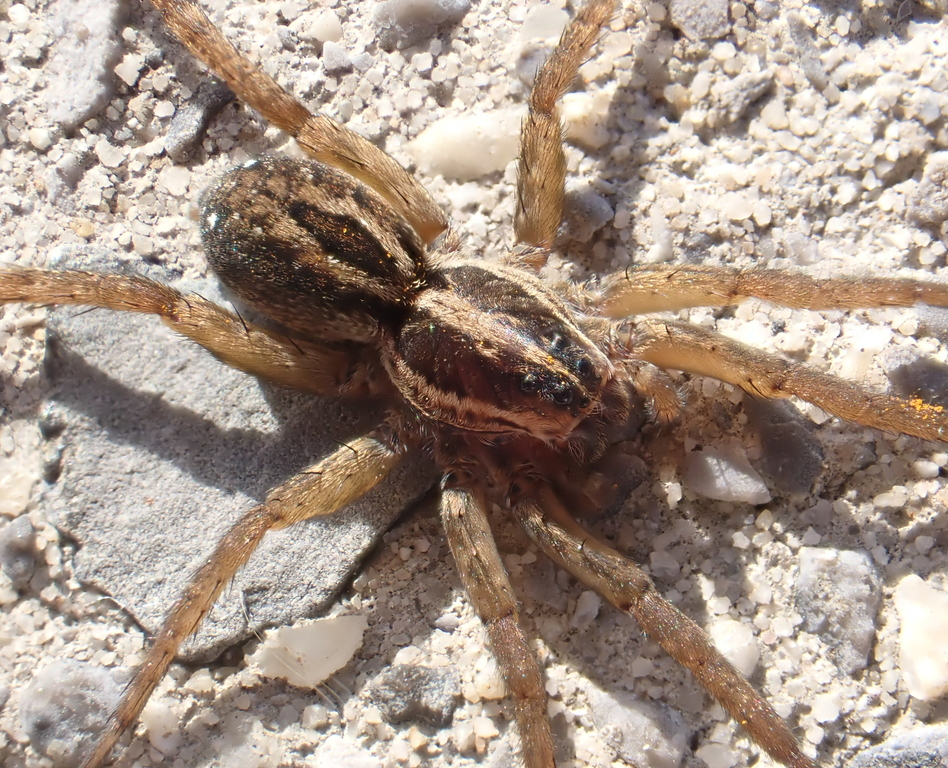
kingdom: Animalia
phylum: Arthropoda
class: Arachnida
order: Araneae
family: Lycosidae
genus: Tigrosa
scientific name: Tigrosa annexa
